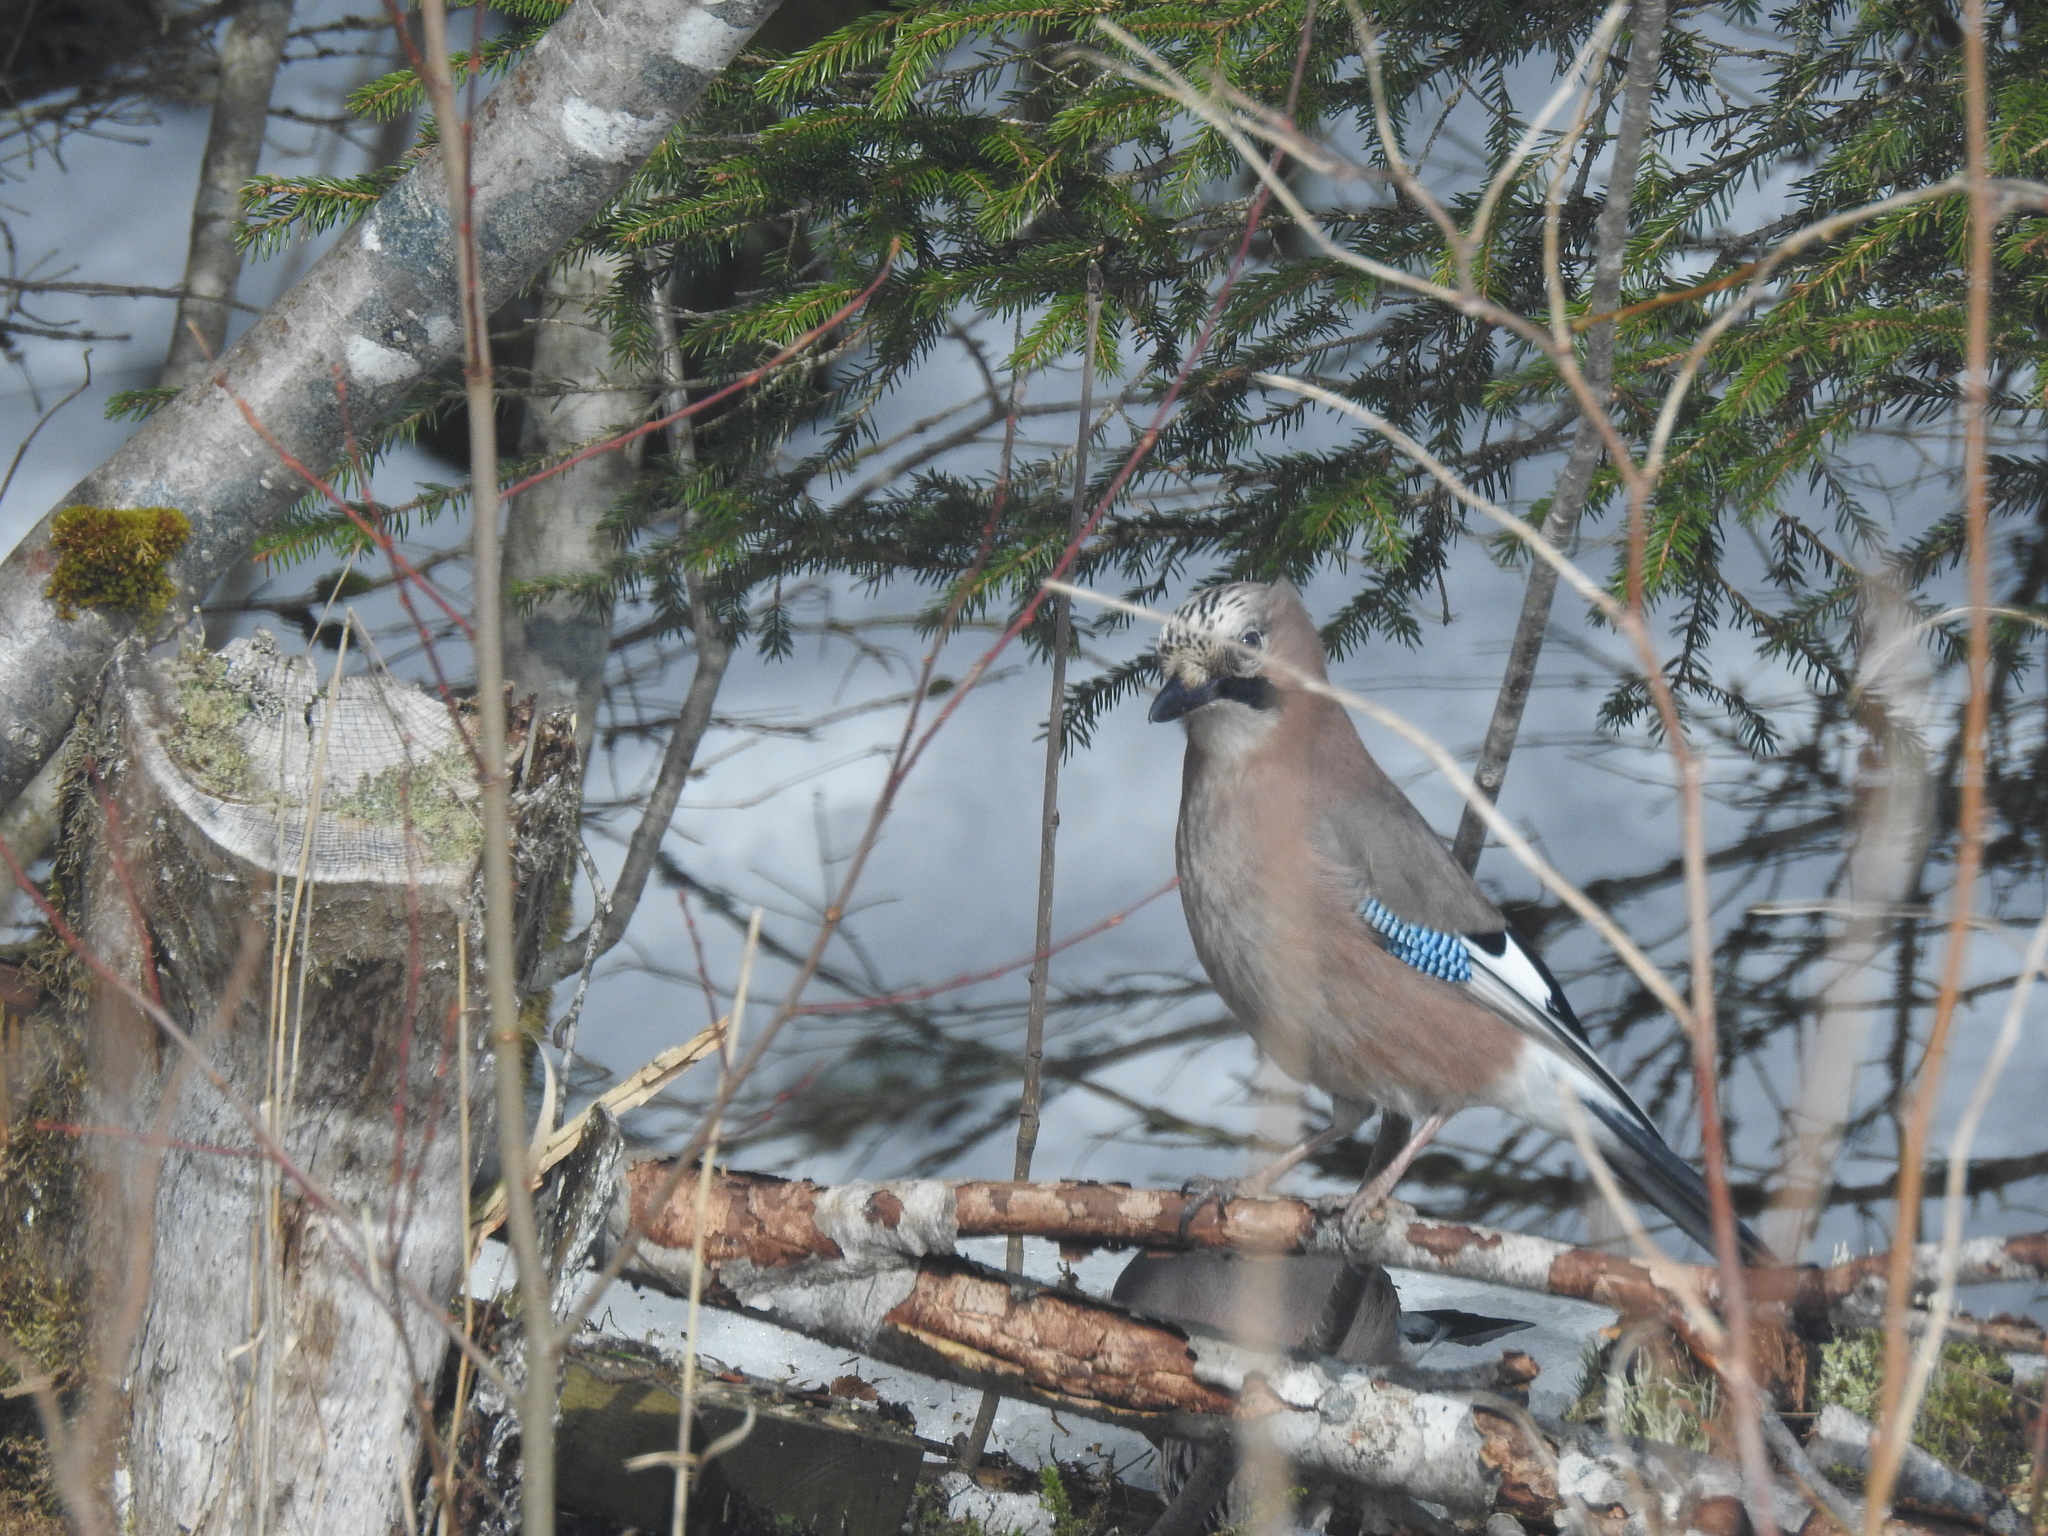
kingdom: Animalia
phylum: Chordata
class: Aves
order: Passeriformes
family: Corvidae
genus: Garrulus
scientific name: Garrulus glandarius
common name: Eurasian jay
